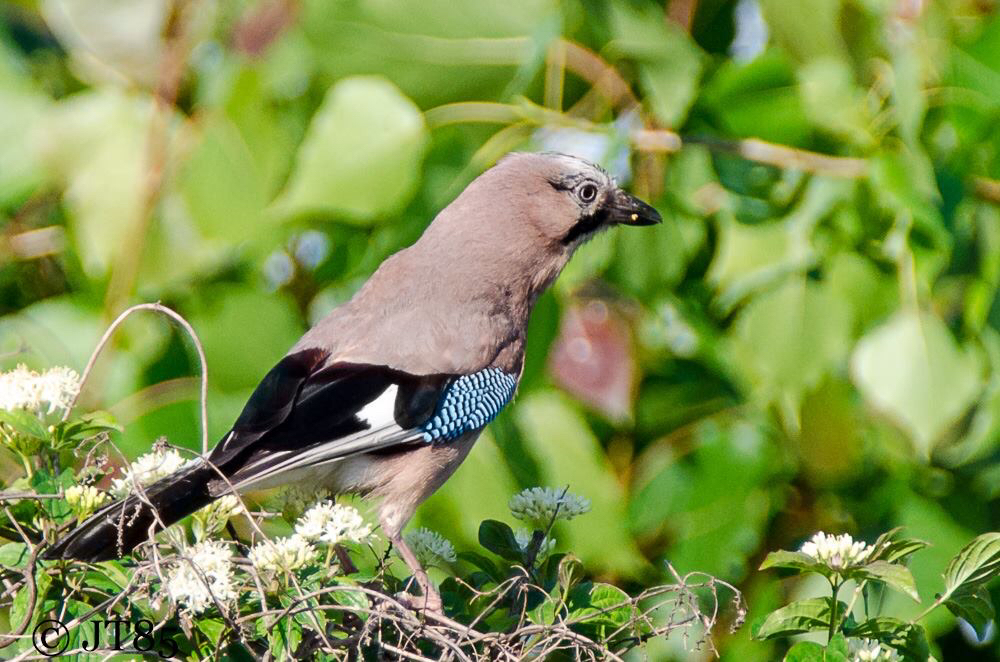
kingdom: Animalia
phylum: Chordata
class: Aves
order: Passeriformes
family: Corvidae
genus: Garrulus
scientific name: Garrulus glandarius
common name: Eurasian jay
